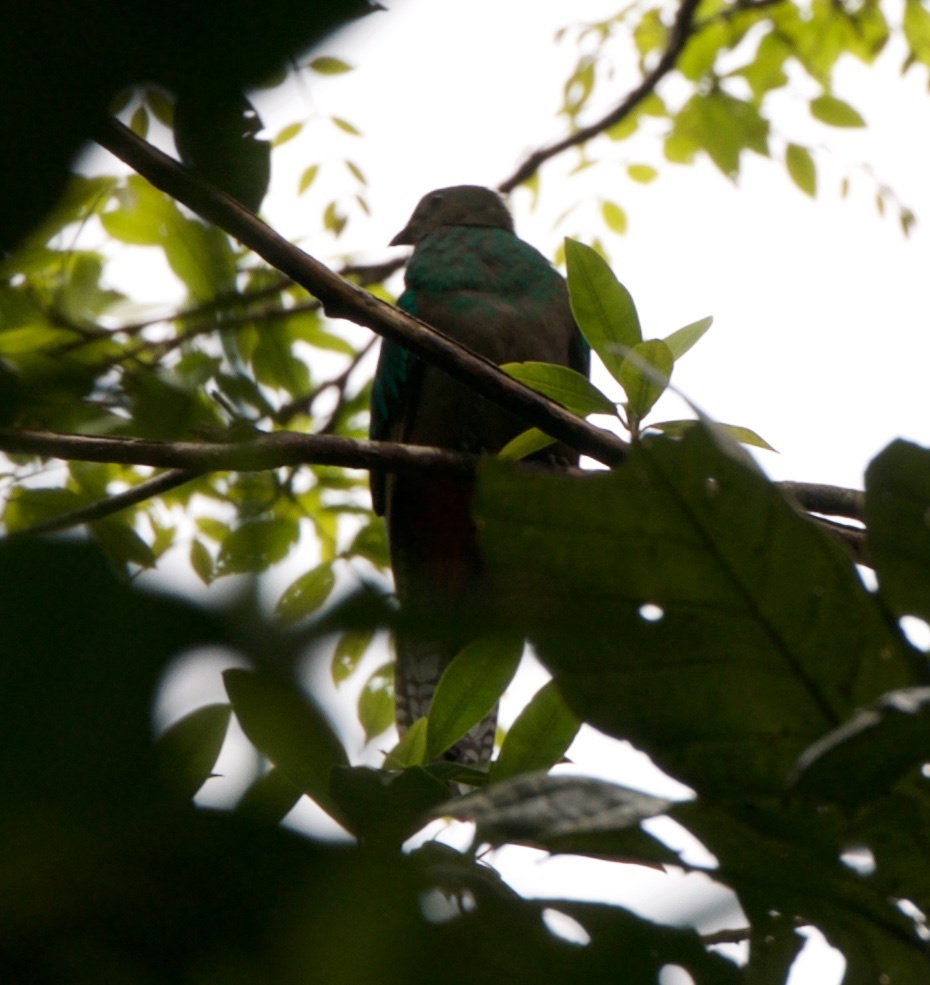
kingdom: Animalia
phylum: Chordata
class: Aves
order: Trogoniformes
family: Trogonidae
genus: Pharomachrus
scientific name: Pharomachrus mocinno
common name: Resplendent quetzal
